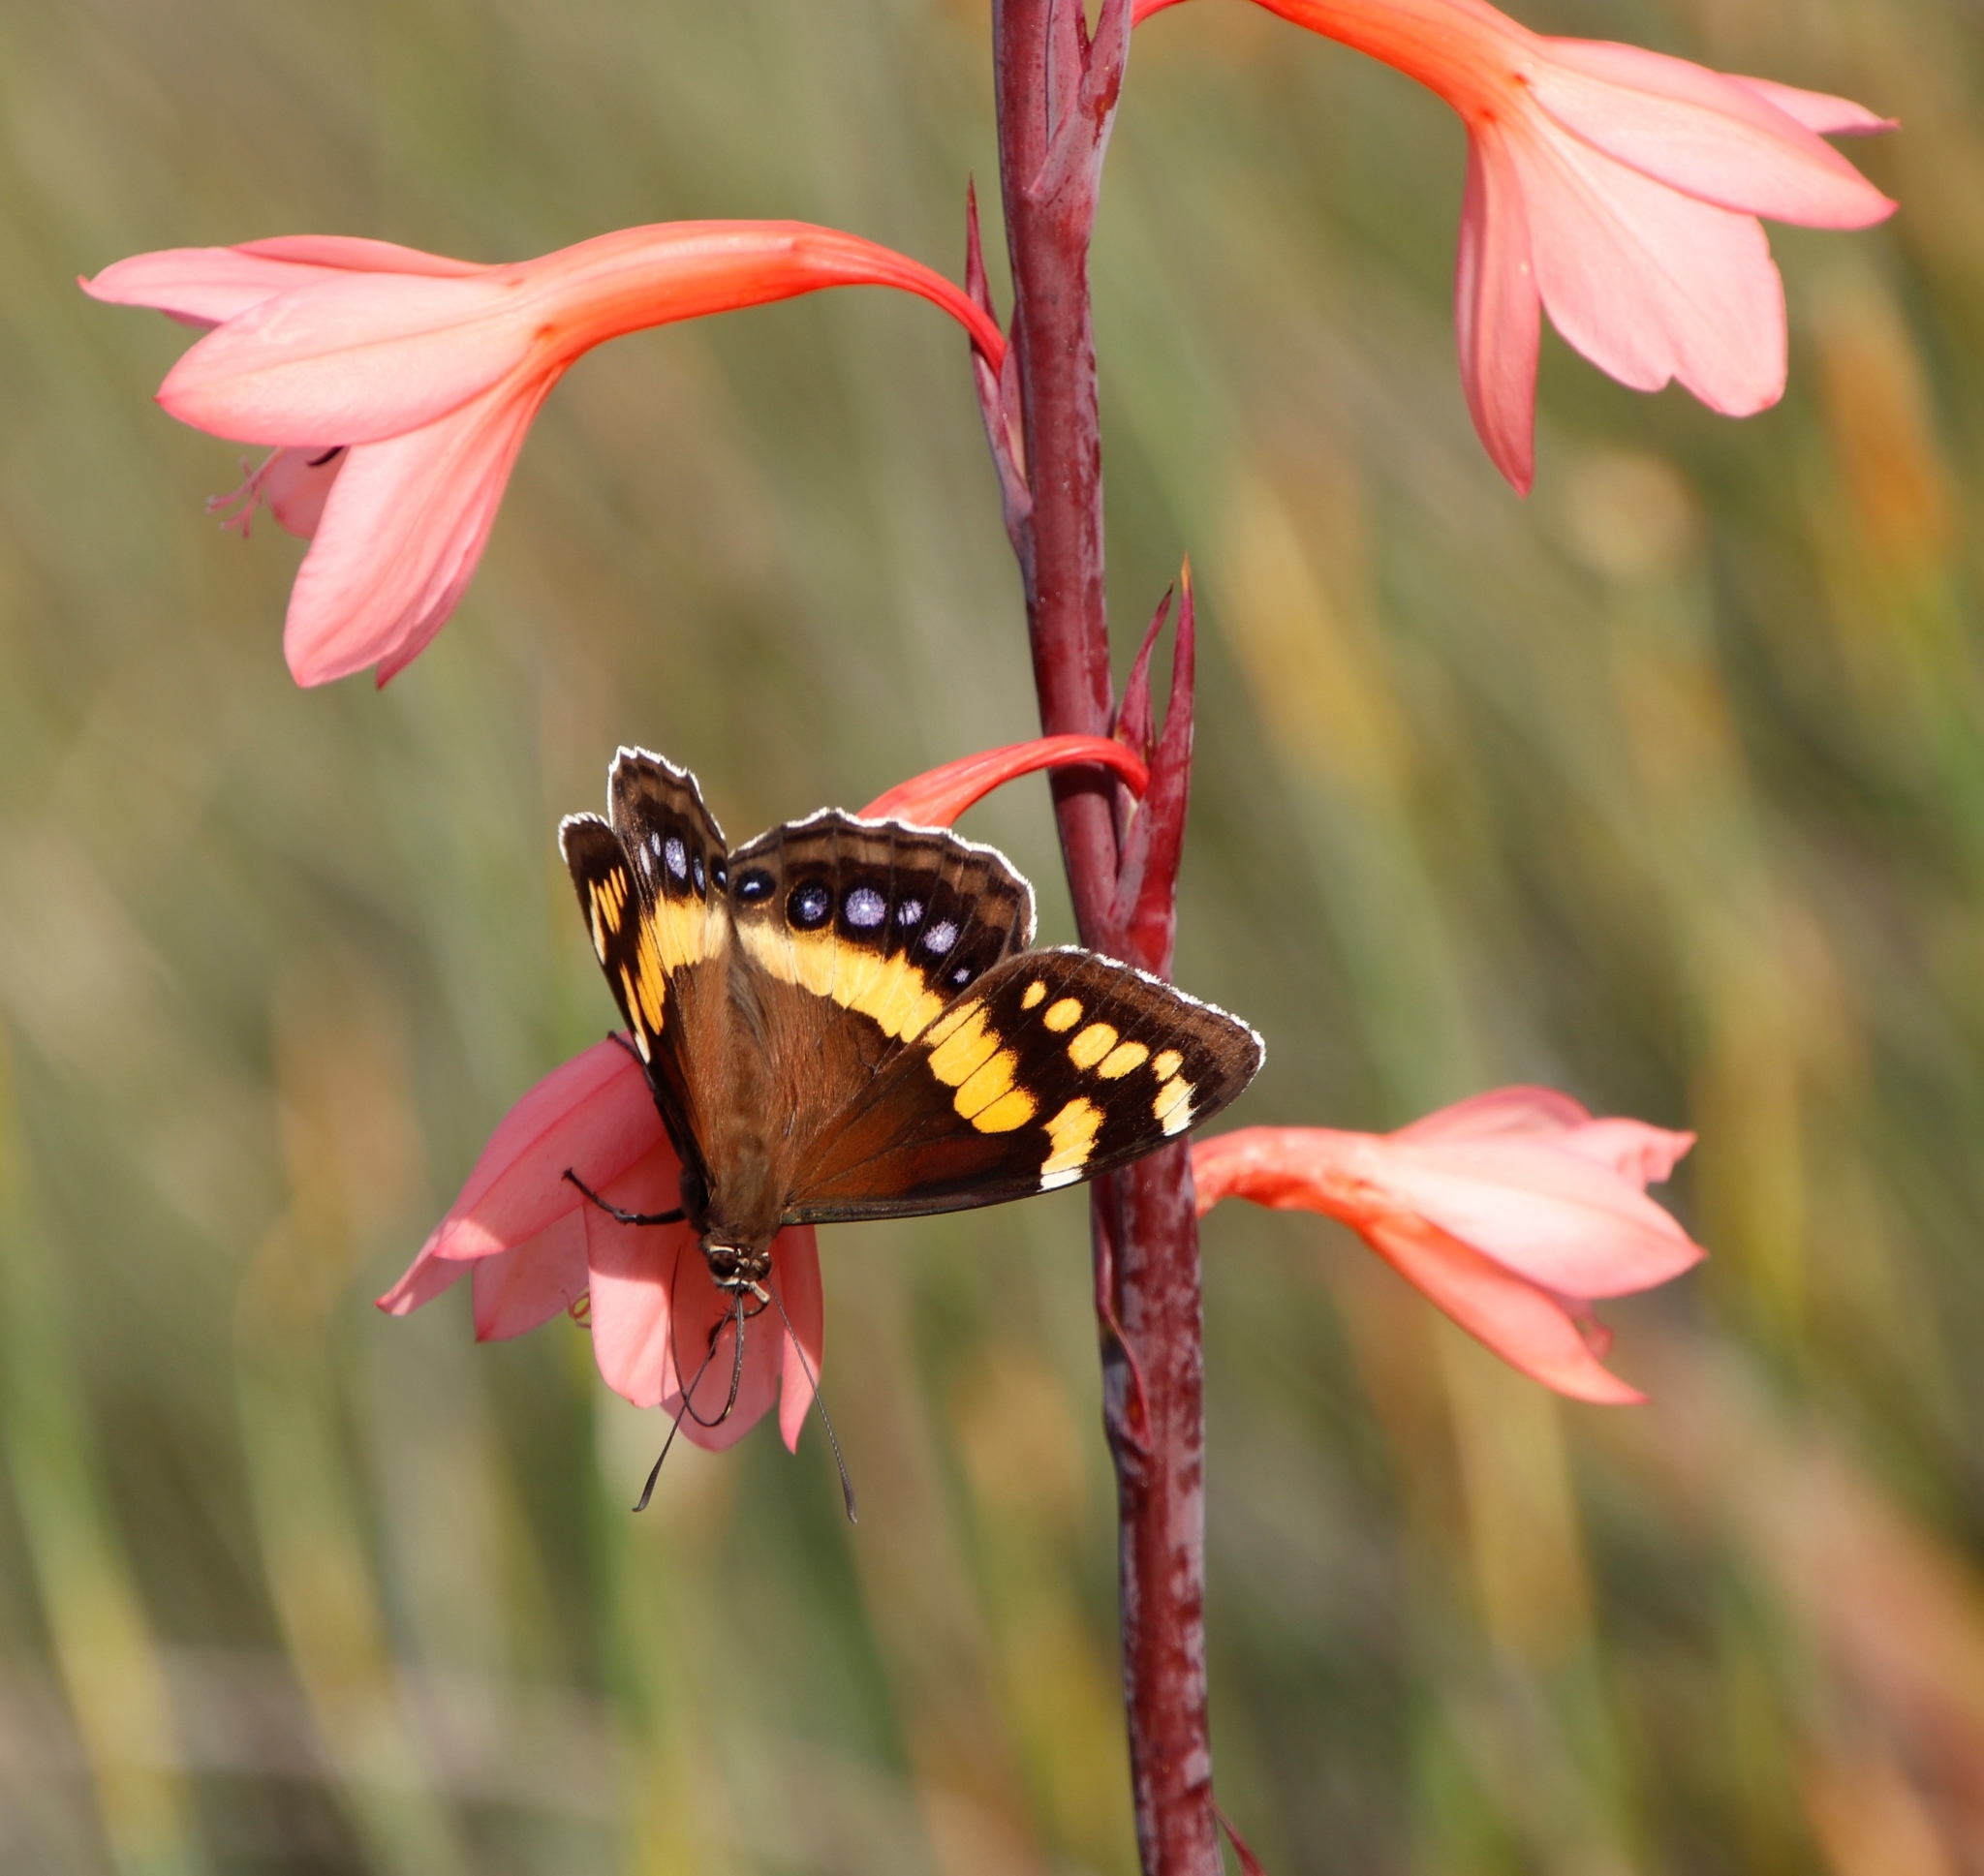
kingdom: Plantae
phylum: Tracheophyta
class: Liliopsida
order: Asparagales
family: Iridaceae
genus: Watsonia
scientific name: Watsonia tabularis
